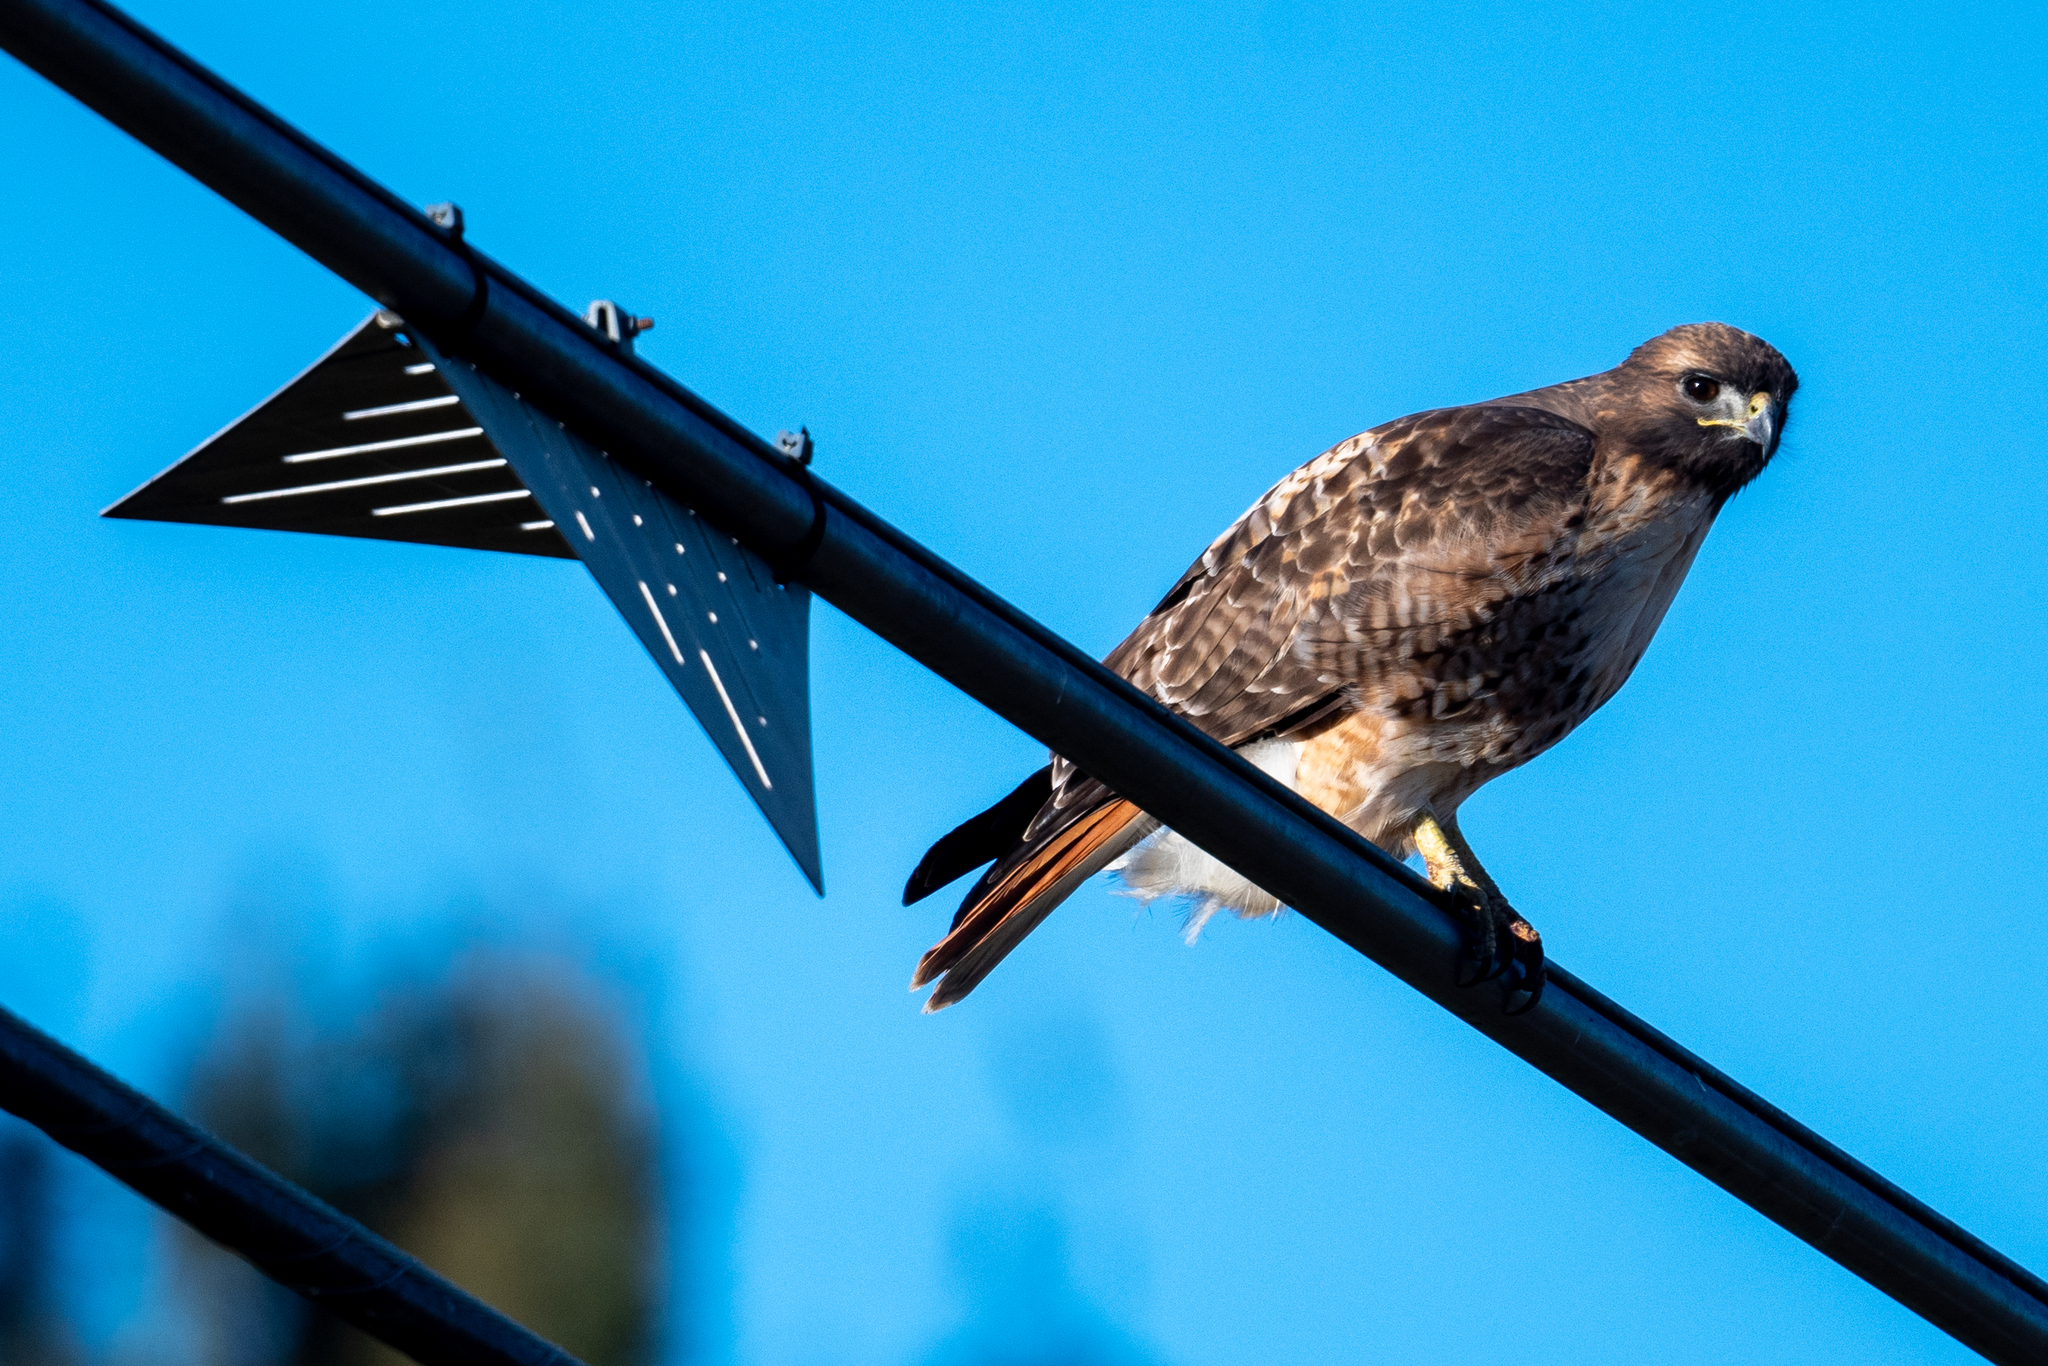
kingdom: Animalia
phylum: Chordata
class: Aves
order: Accipitriformes
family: Accipitridae
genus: Buteo
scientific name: Buteo jamaicensis
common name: Red-tailed hawk
